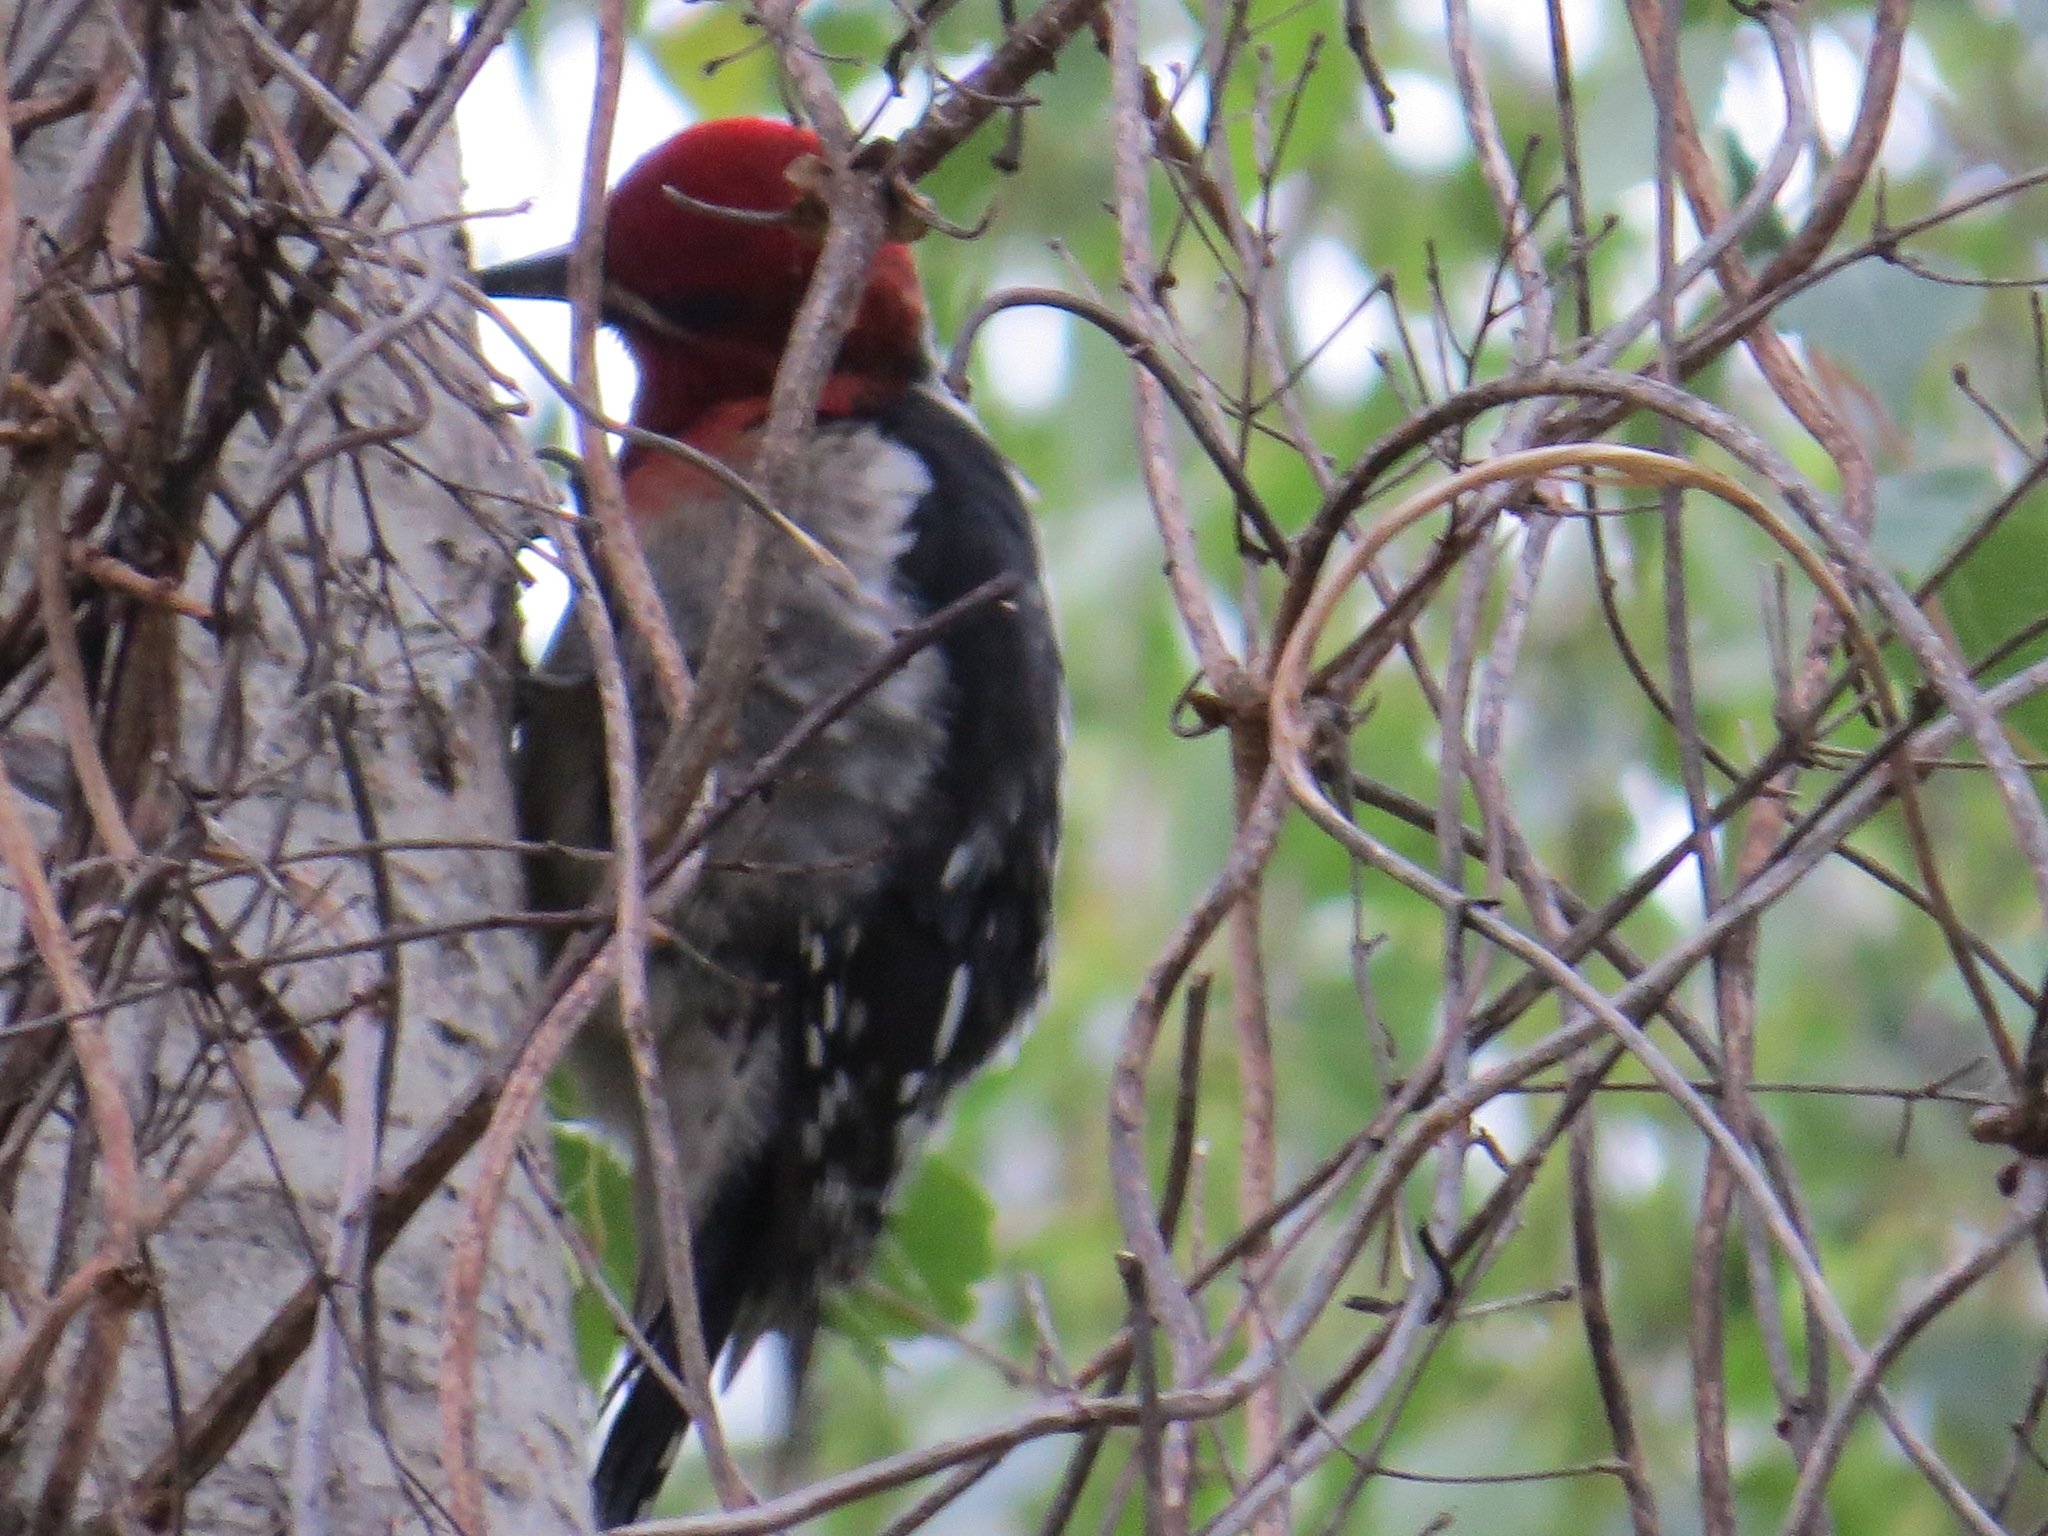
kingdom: Animalia
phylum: Chordata
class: Aves
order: Piciformes
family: Picidae
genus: Sphyrapicus
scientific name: Sphyrapicus ruber
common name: Red-breasted sapsucker
